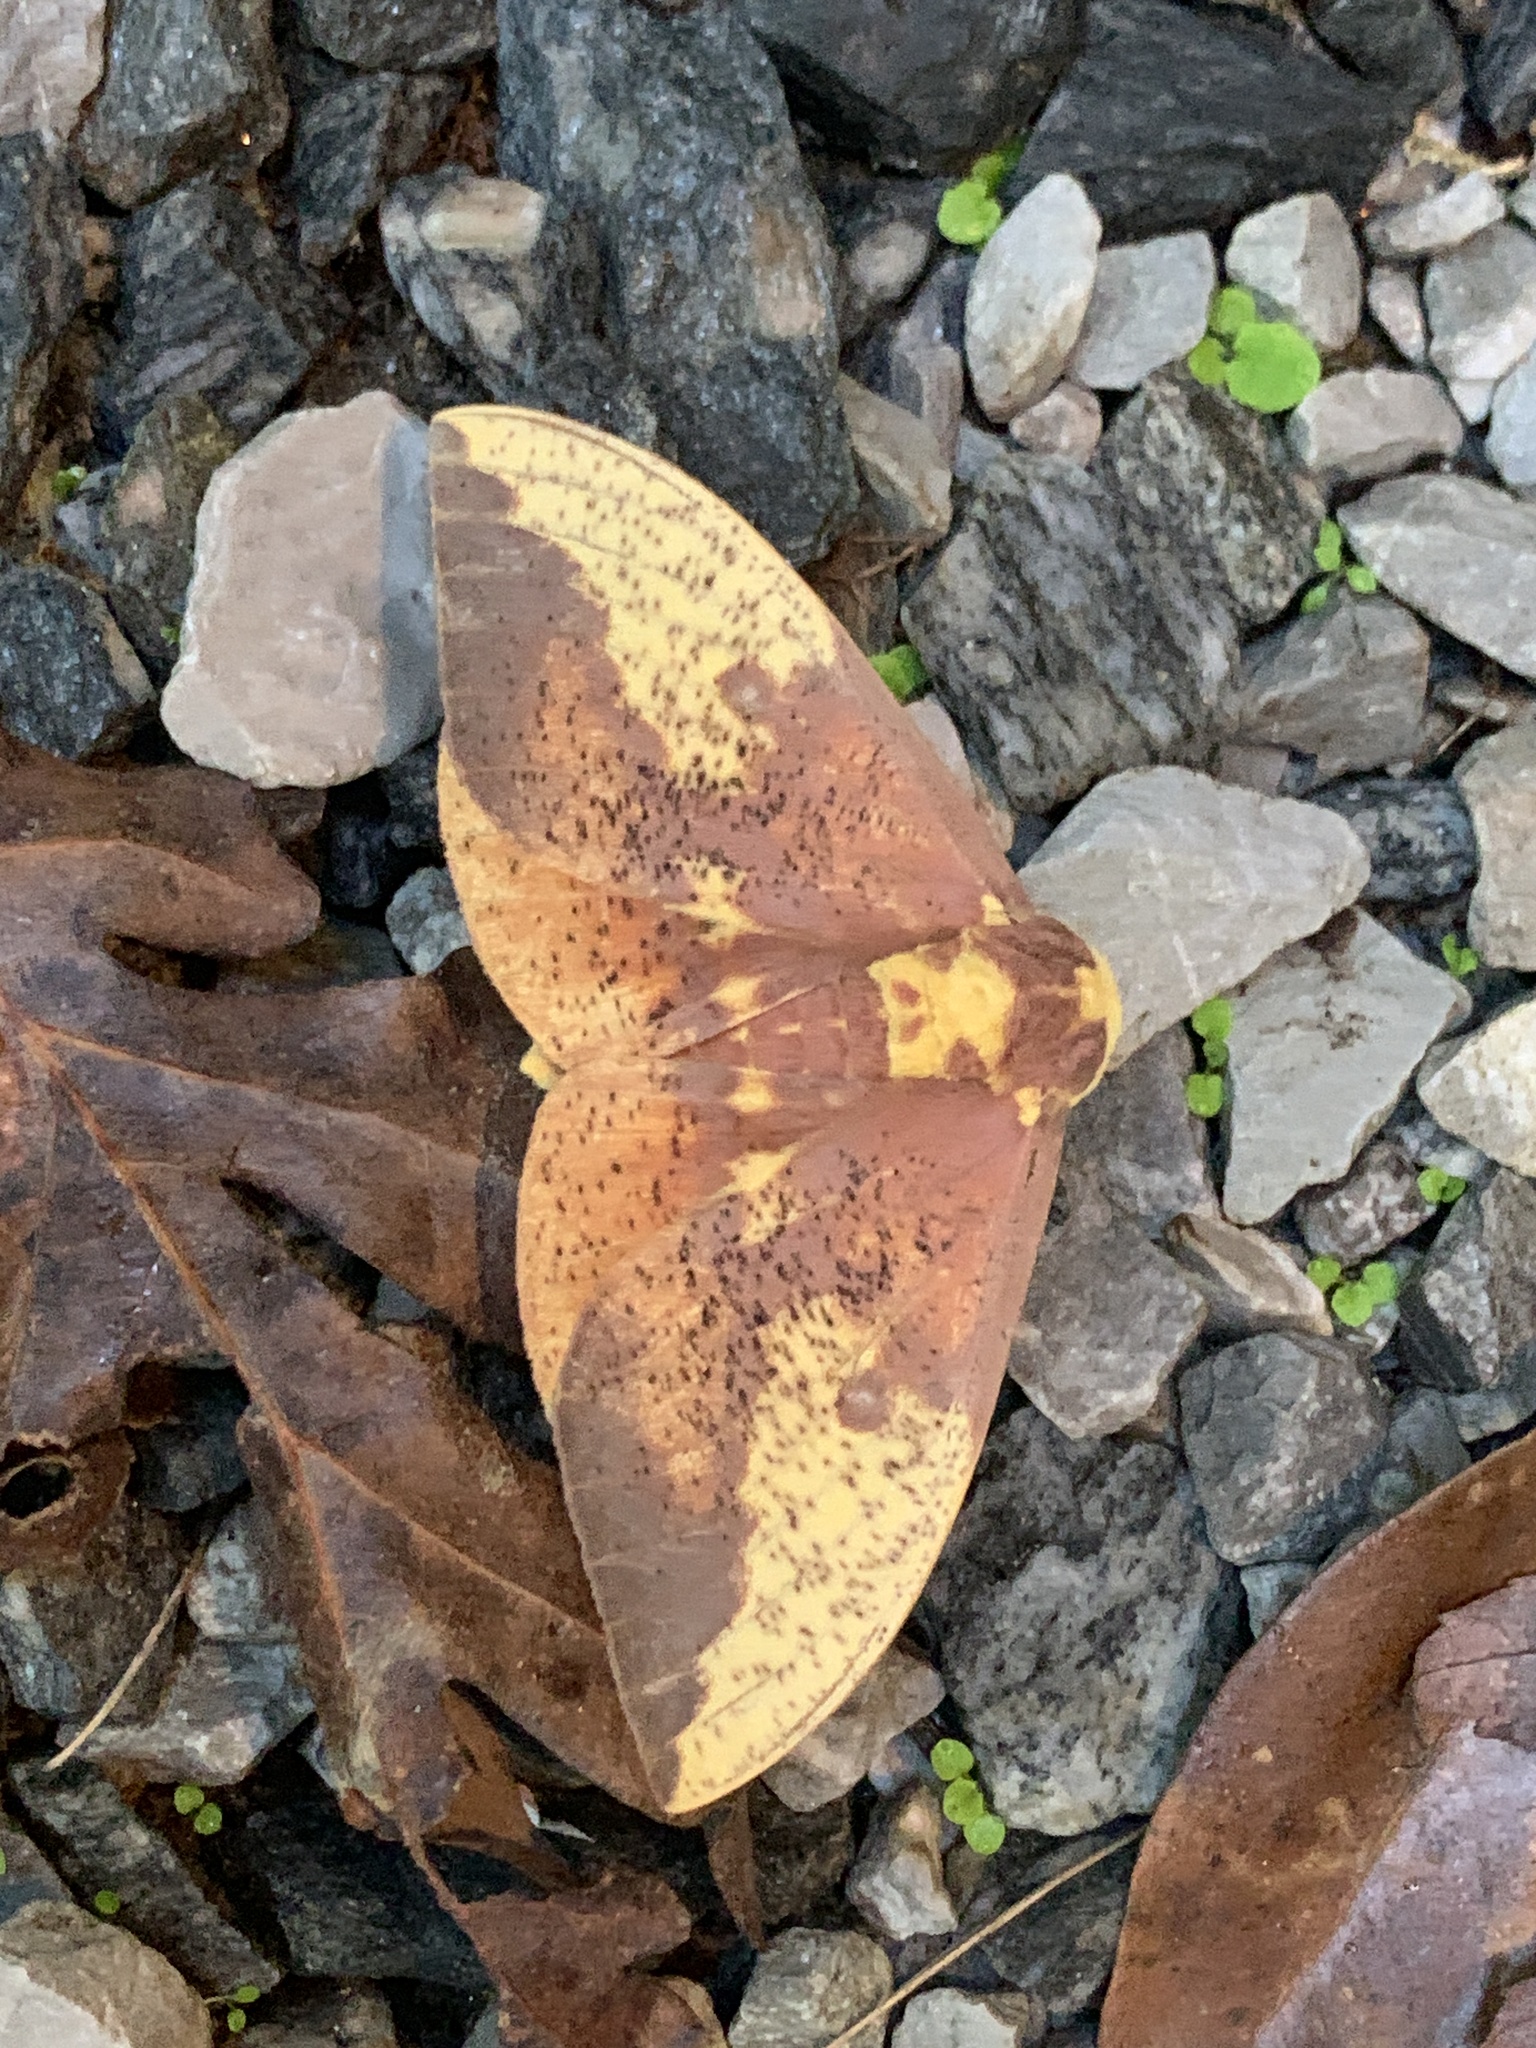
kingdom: Animalia
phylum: Arthropoda
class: Insecta
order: Lepidoptera
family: Saturniidae
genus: Eacles
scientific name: Eacles imperialis
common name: Imperial moth
